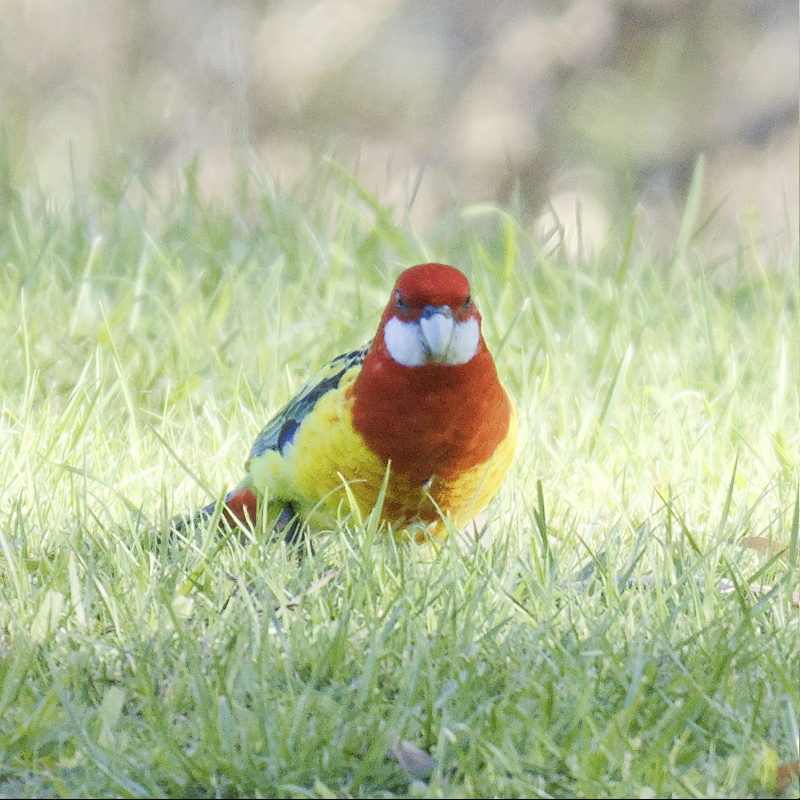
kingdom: Animalia
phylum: Chordata
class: Aves
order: Psittaciformes
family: Psittacidae
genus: Platycercus
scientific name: Platycercus eximius
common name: Eastern rosella
